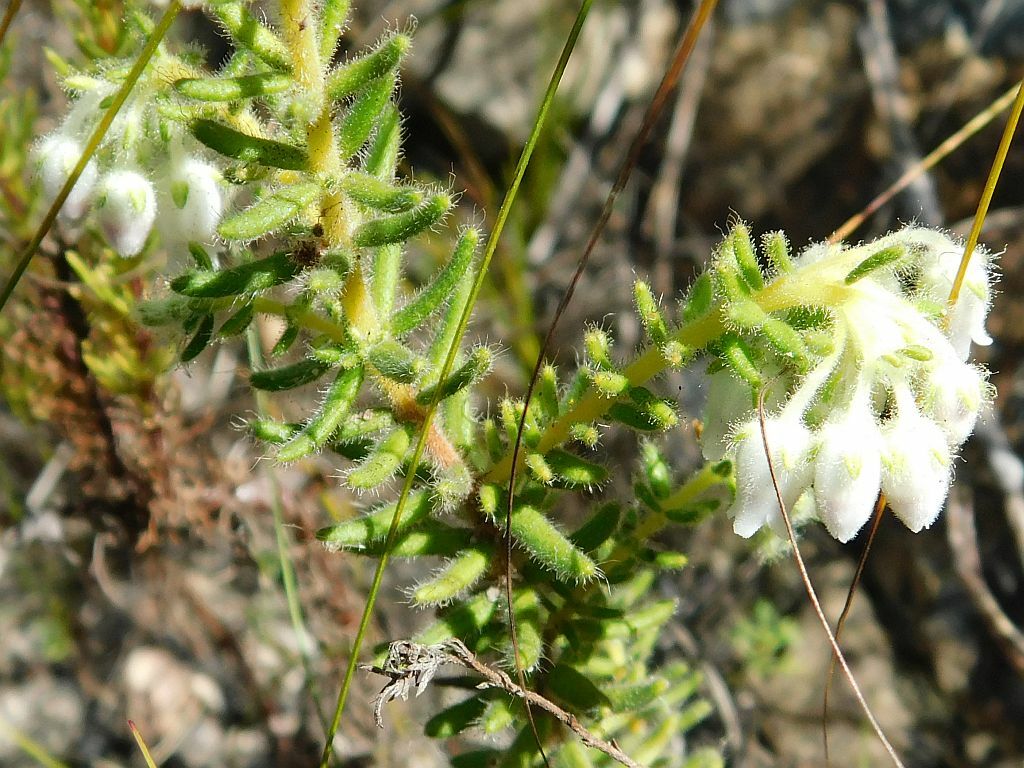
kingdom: Plantae
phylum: Tracheophyta
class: Magnoliopsida
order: Ericales
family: Ericaceae
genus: Erica
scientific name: Erica pannosa
